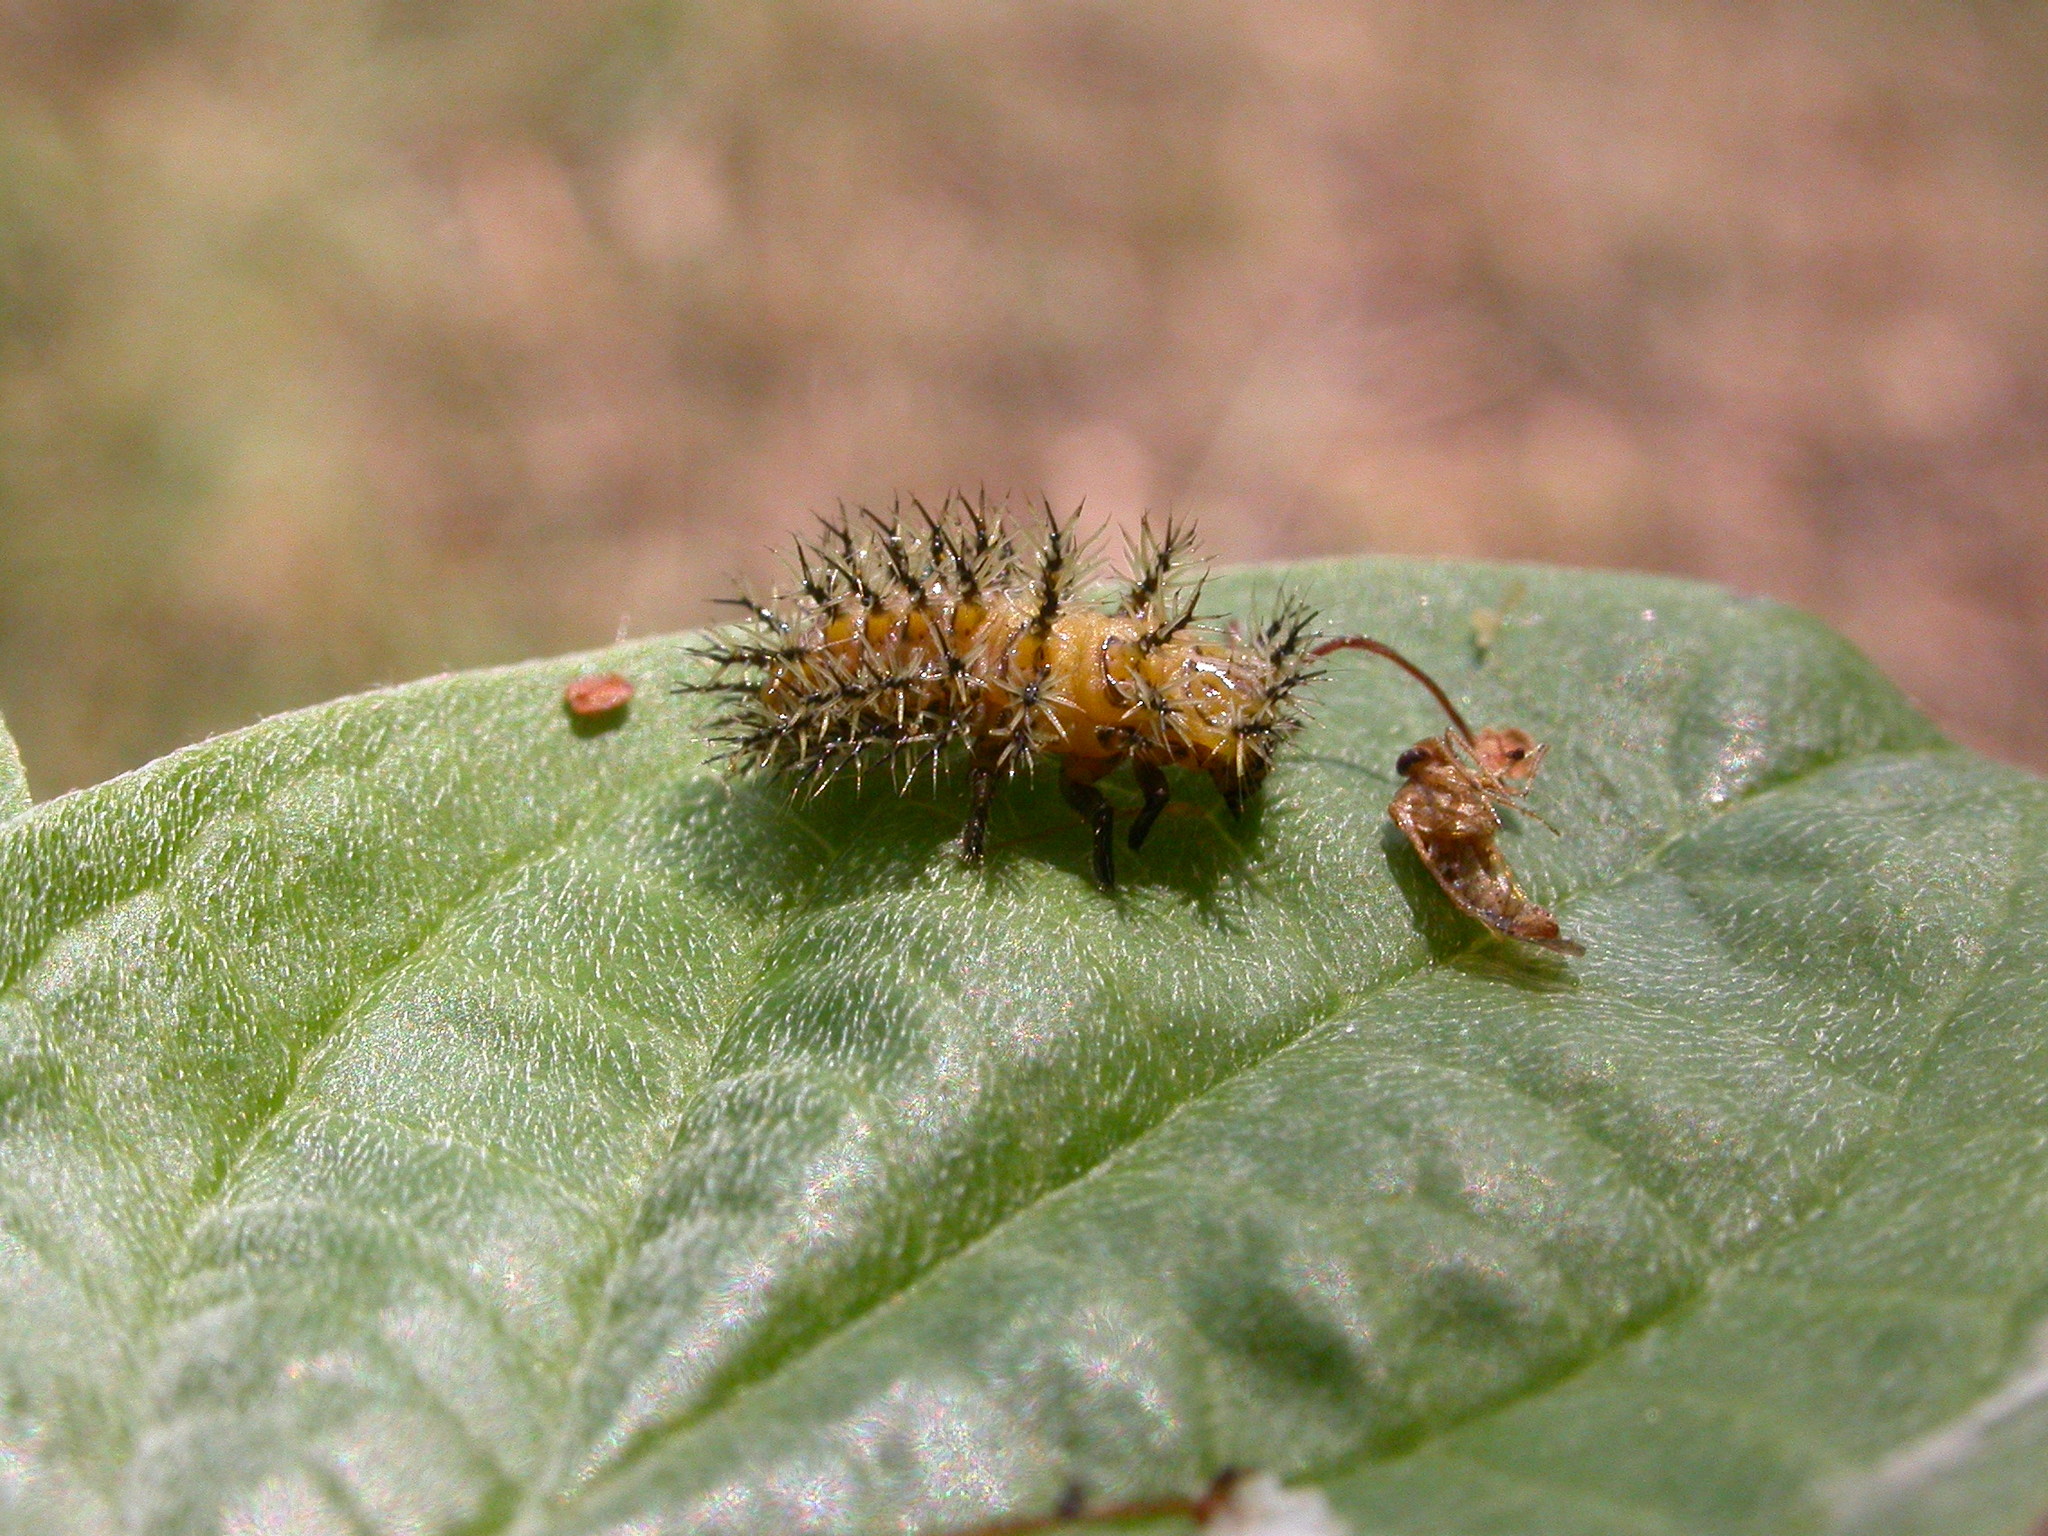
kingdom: Animalia
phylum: Arthropoda
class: Insecta
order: Coleoptera
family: Coccinellidae
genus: Henosepilachna
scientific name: Henosepilachna argus
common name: Bryony ladybird
